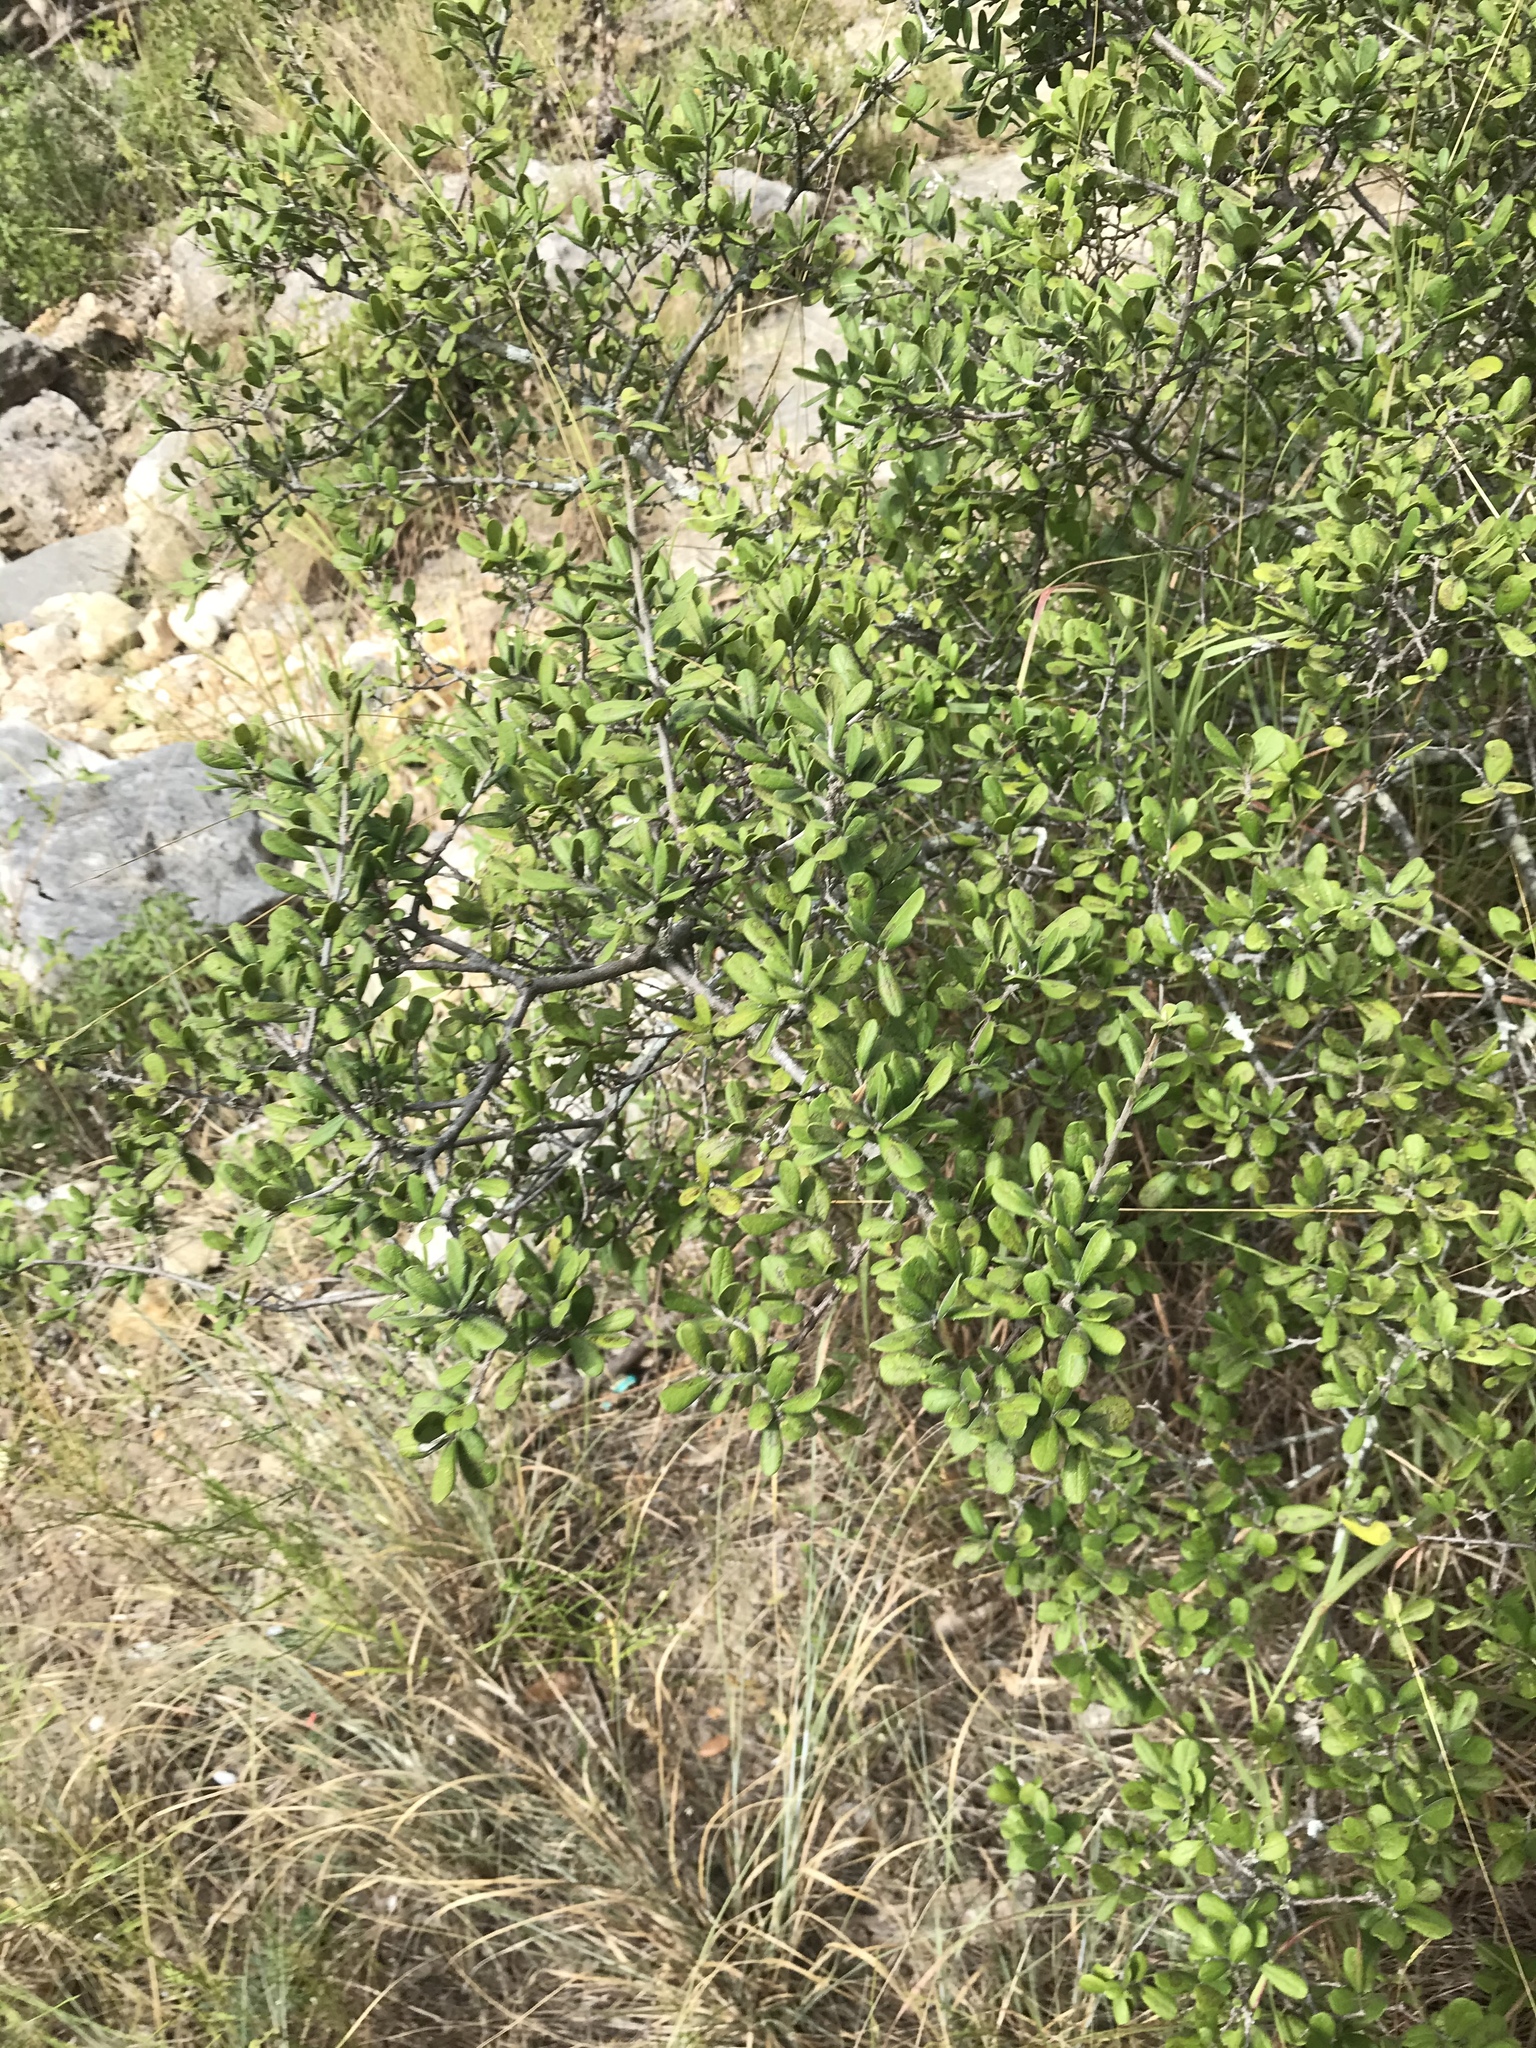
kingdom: Plantae
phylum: Tracheophyta
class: Magnoliopsida
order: Ericales
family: Ebenaceae
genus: Diospyros
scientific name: Diospyros texana
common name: Texas persimmon
